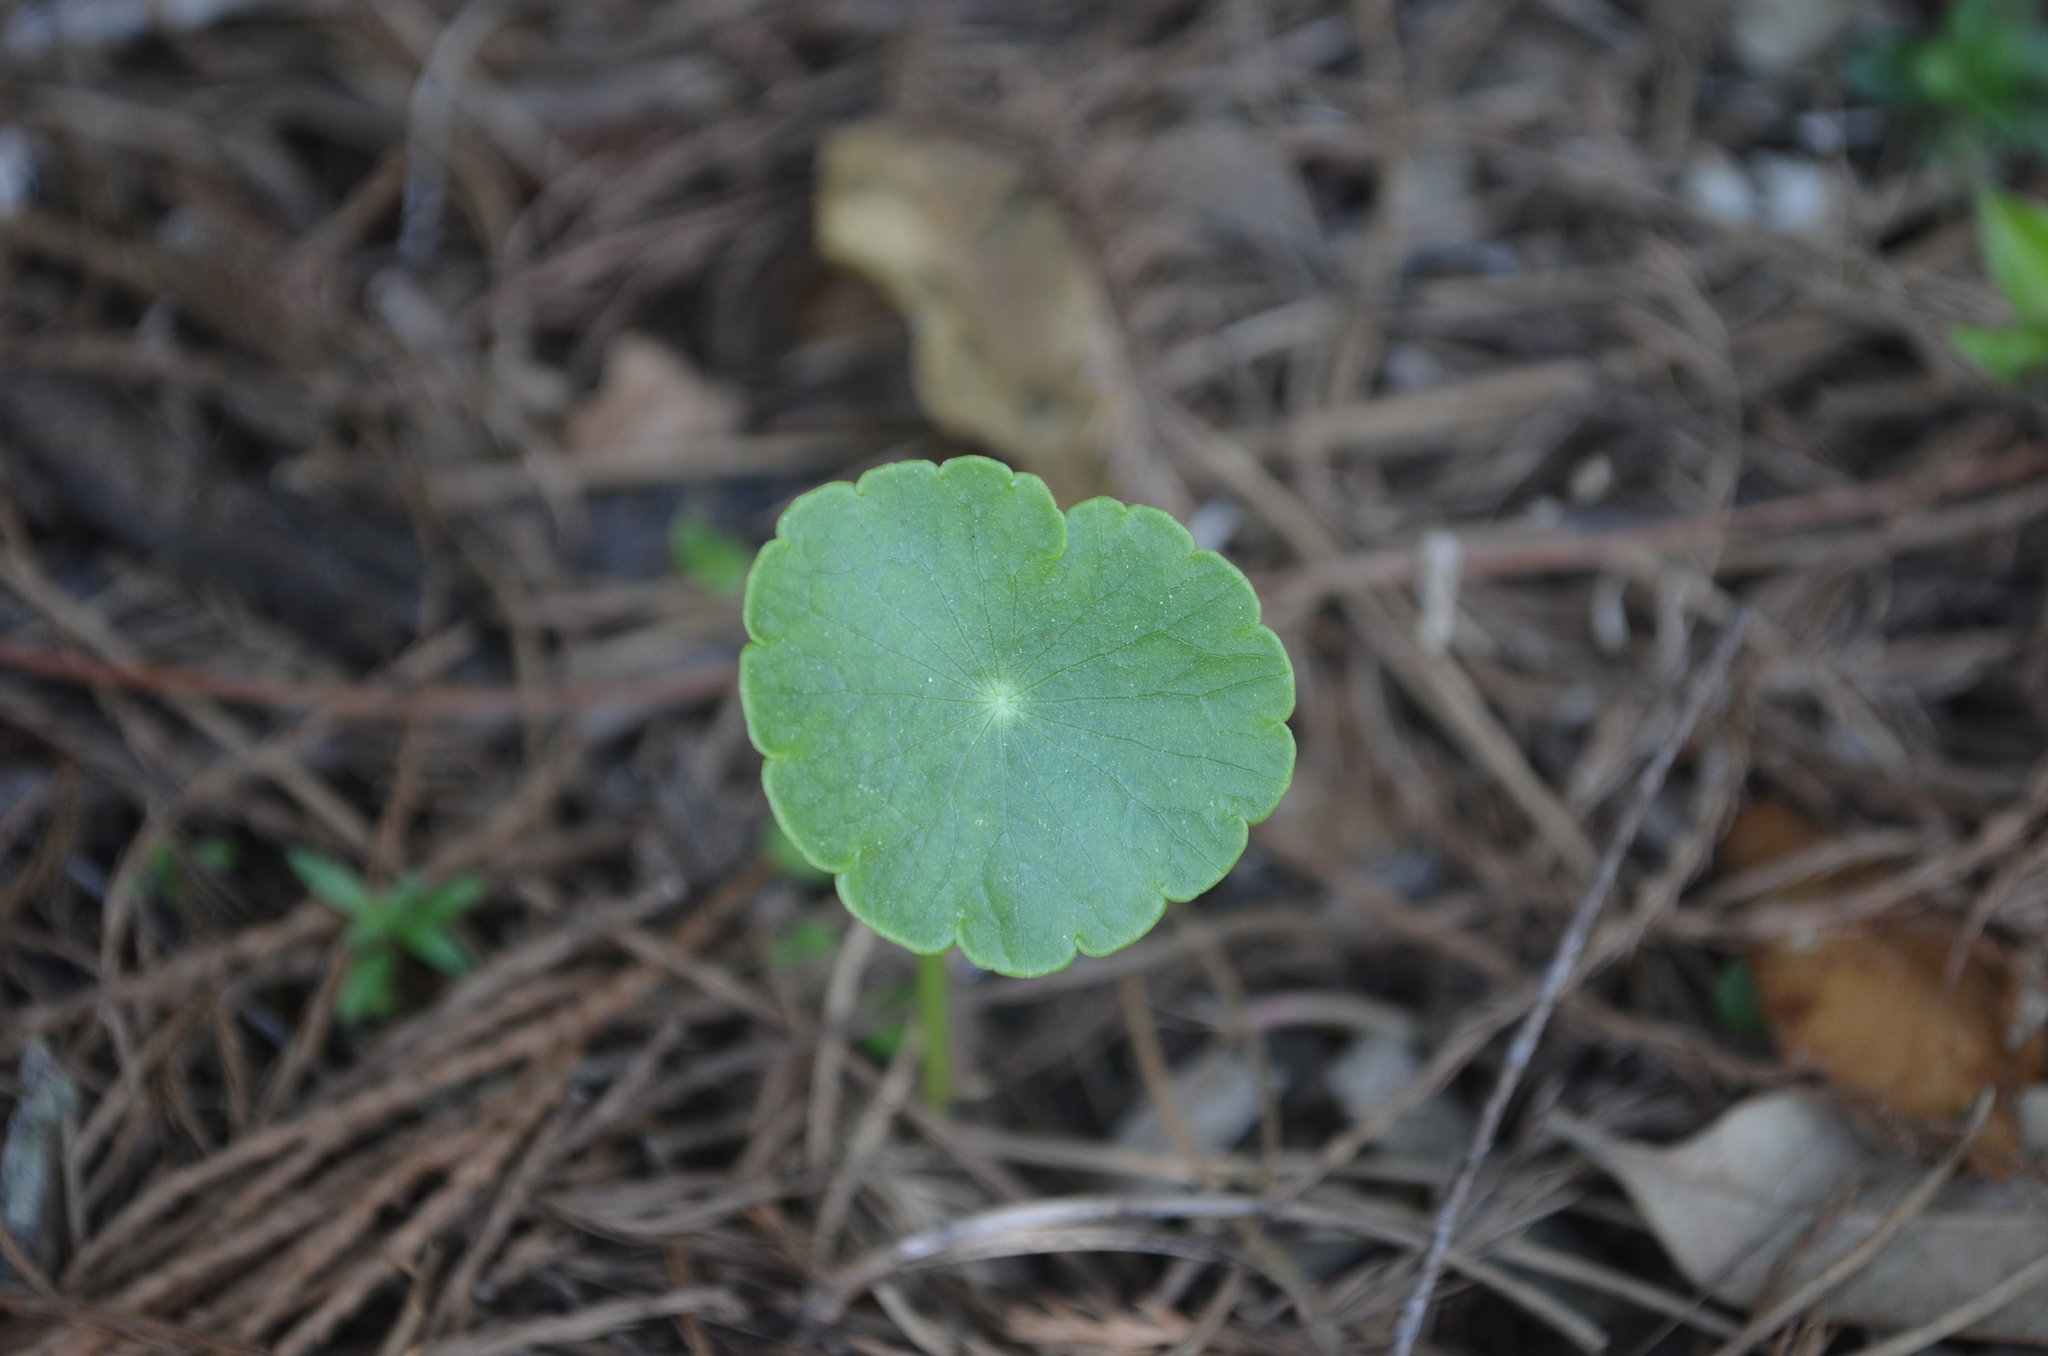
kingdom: Plantae
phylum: Tracheophyta
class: Magnoliopsida
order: Apiales
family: Araliaceae
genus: Hydrocotyle
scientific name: Hydrocotyle umbellata
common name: Water pennywort
